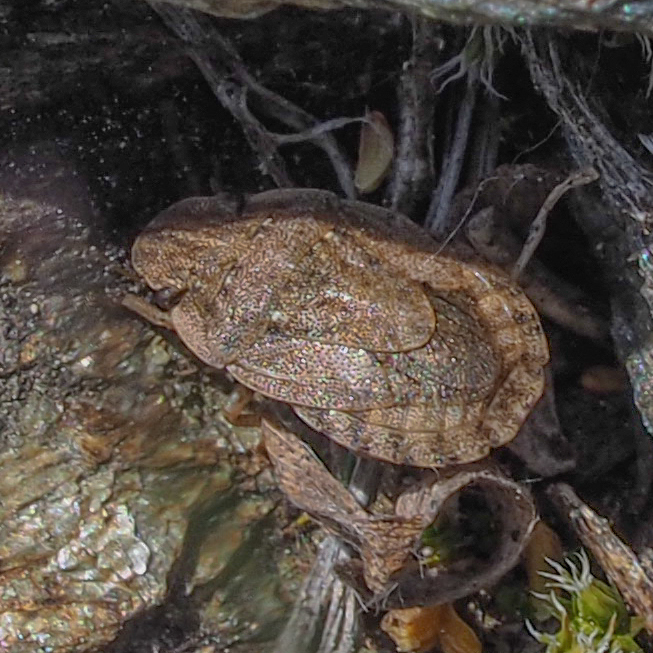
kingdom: Animalia
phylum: Arthropoda
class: Insecta
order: Hemiptera
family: Pentatomidae
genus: Sciocoris
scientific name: Sciocoris microphthalmus
